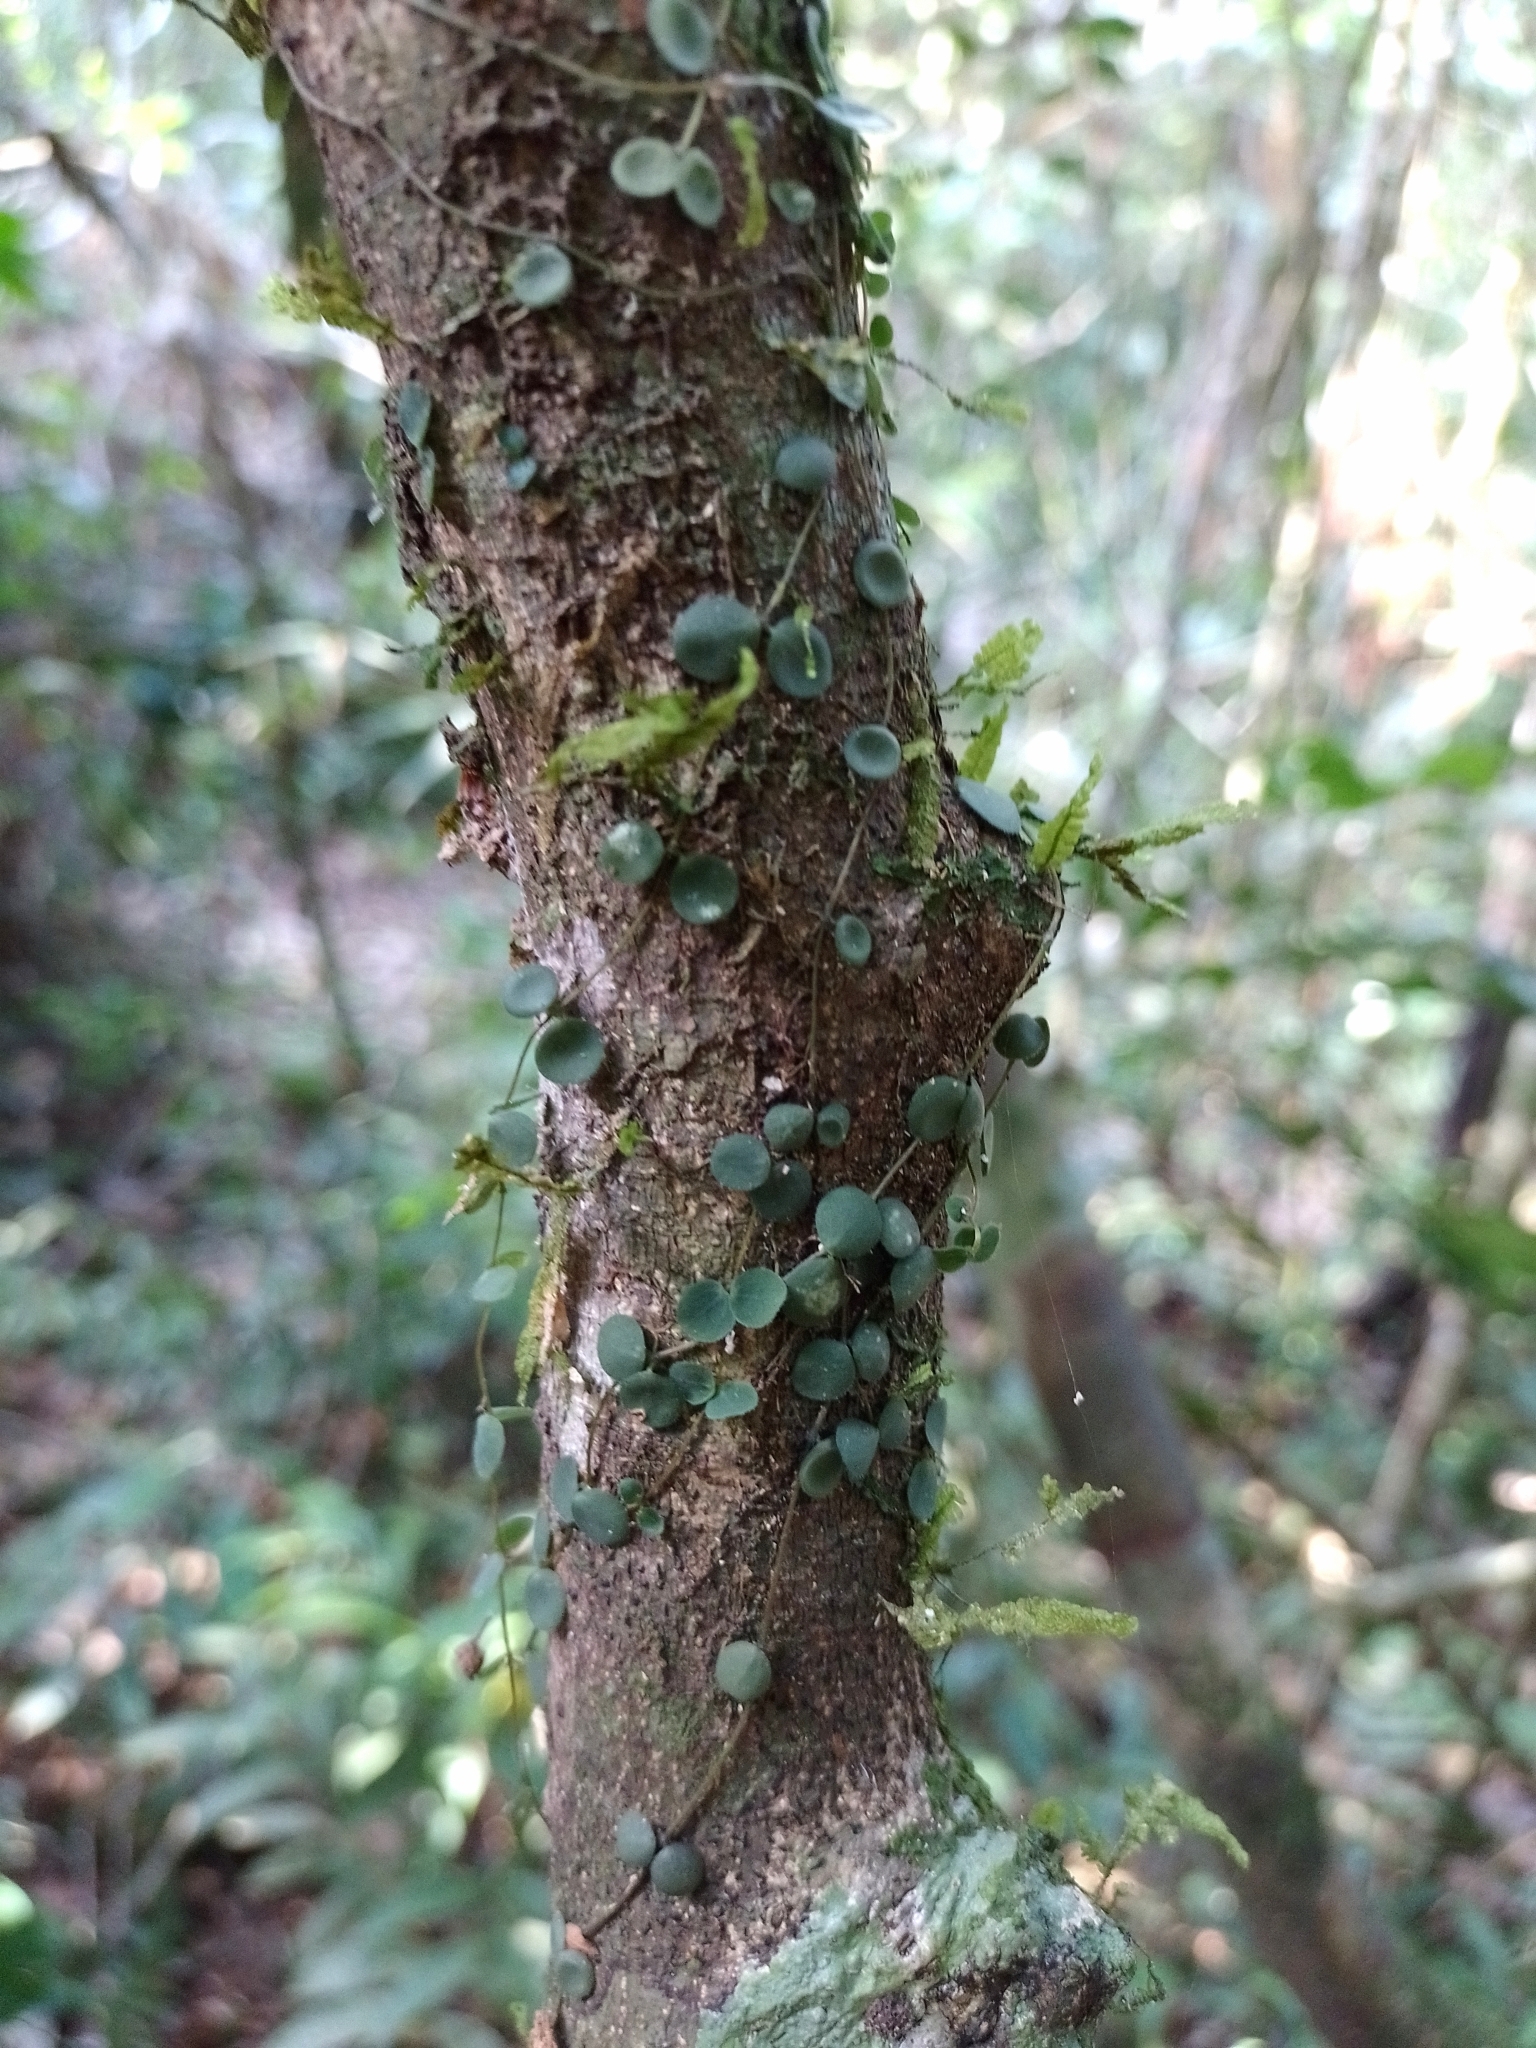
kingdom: Plantae
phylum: Tracheophyta
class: Magnoliopsida
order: Piperales
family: Piperaceae
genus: Peperomia
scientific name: Peperomia rotundifolia
